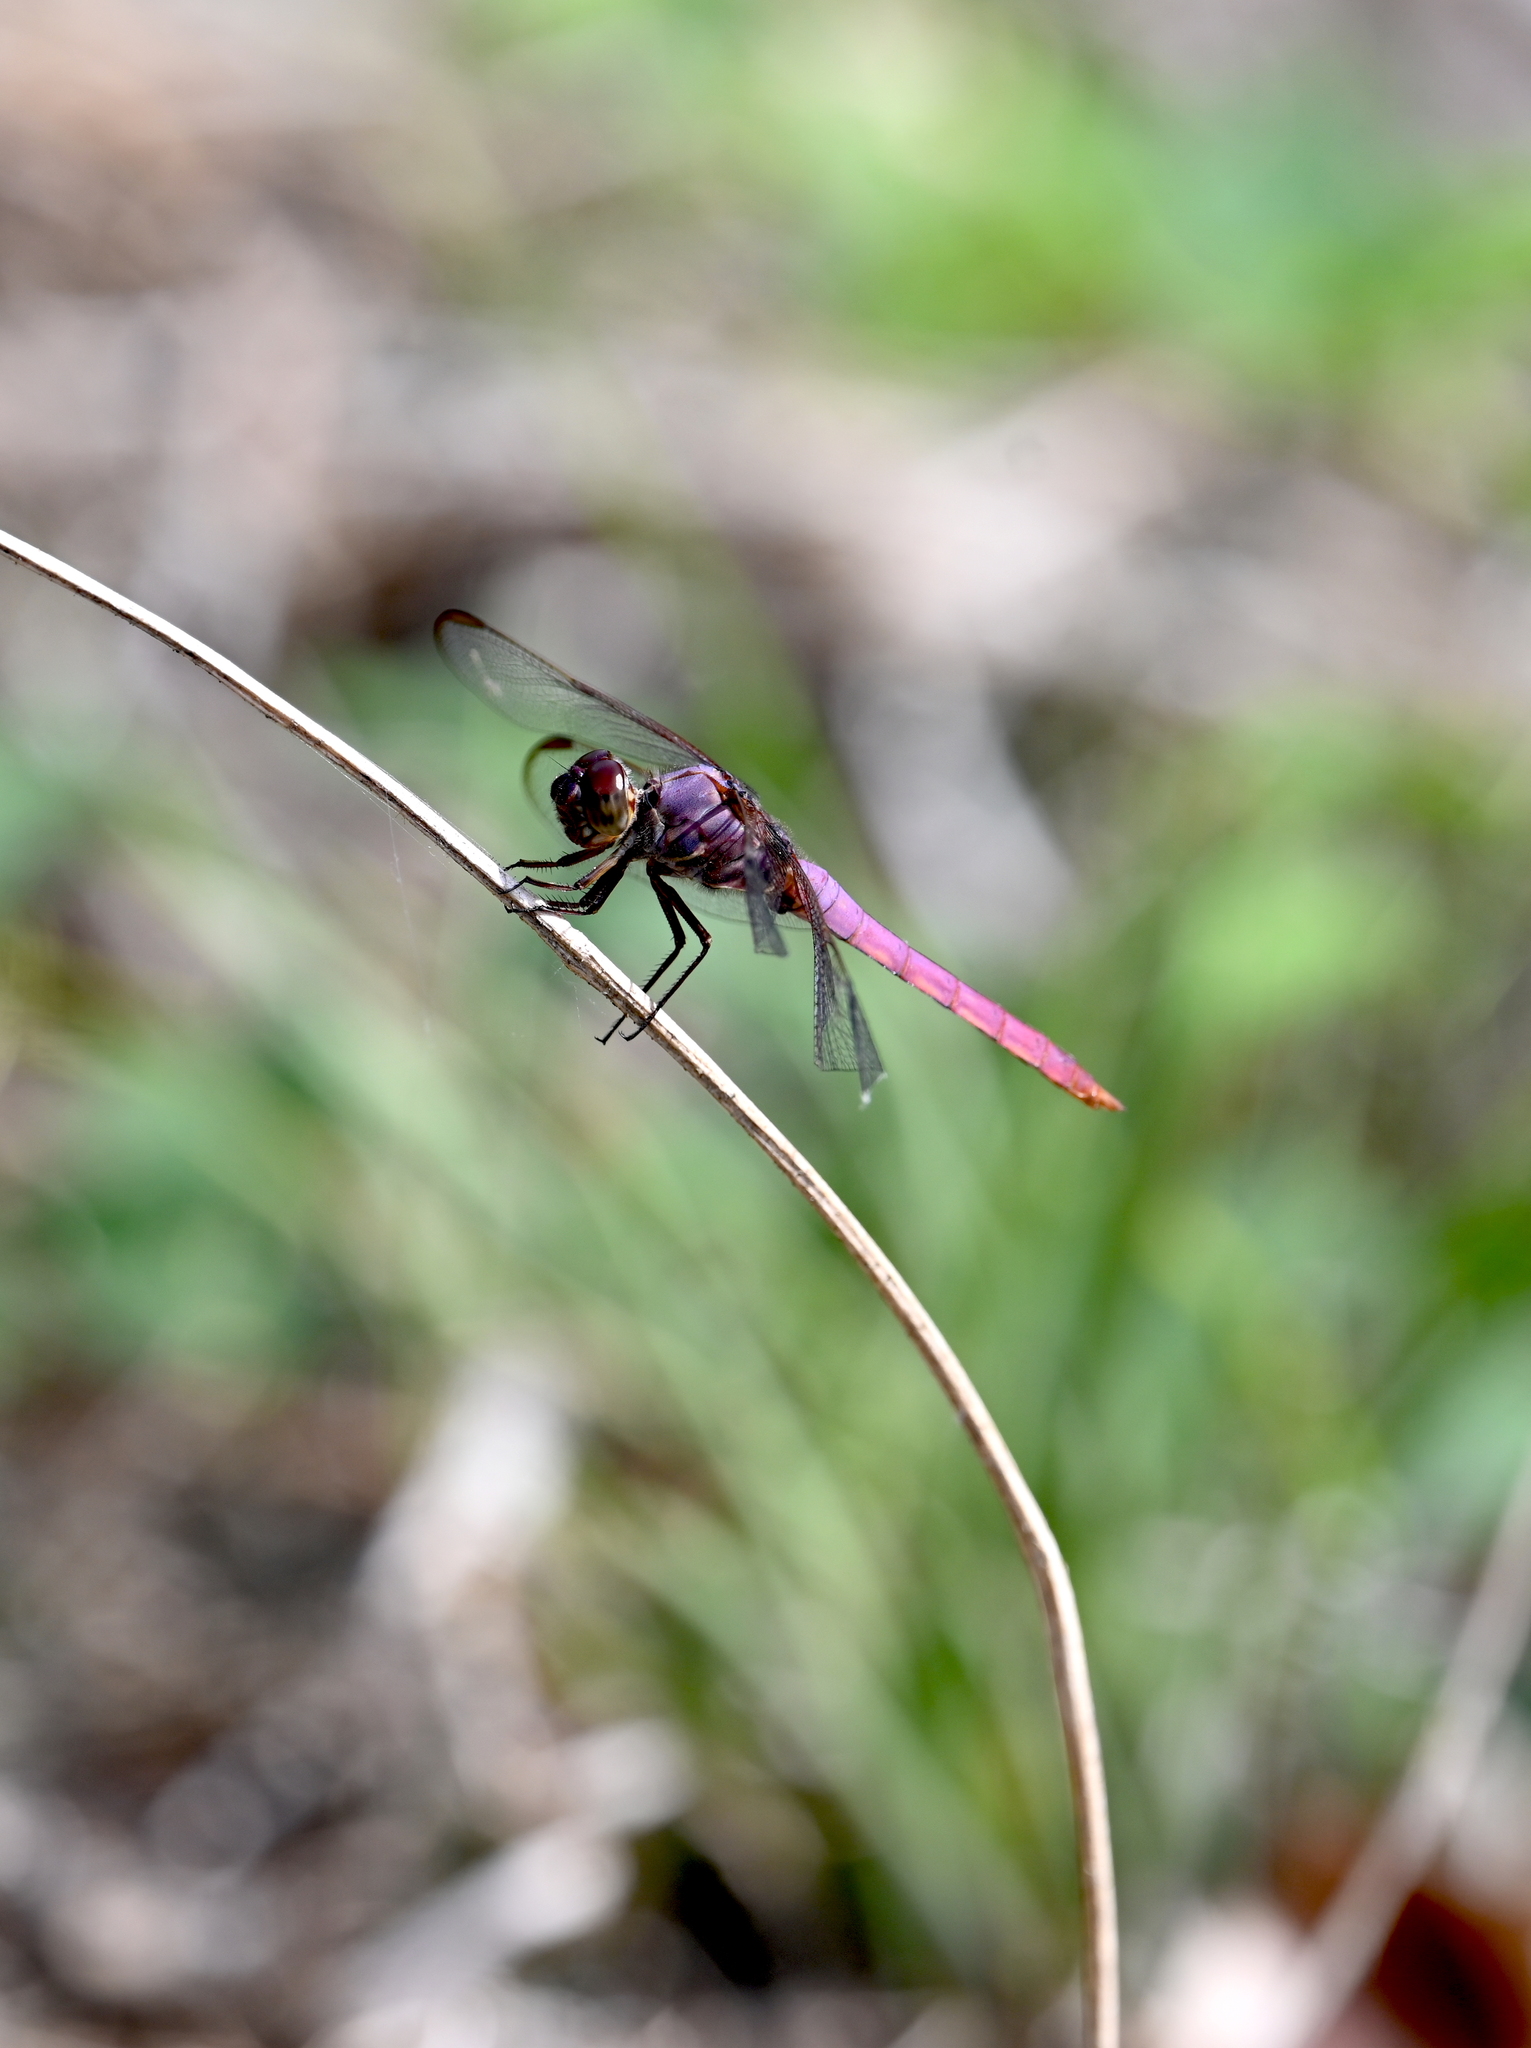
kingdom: Animalia
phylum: Arthropoda
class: Insecta
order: Odonata
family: Libellulidae
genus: Orthemis
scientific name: Orthemis ferruginea
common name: Roseate skimmer
